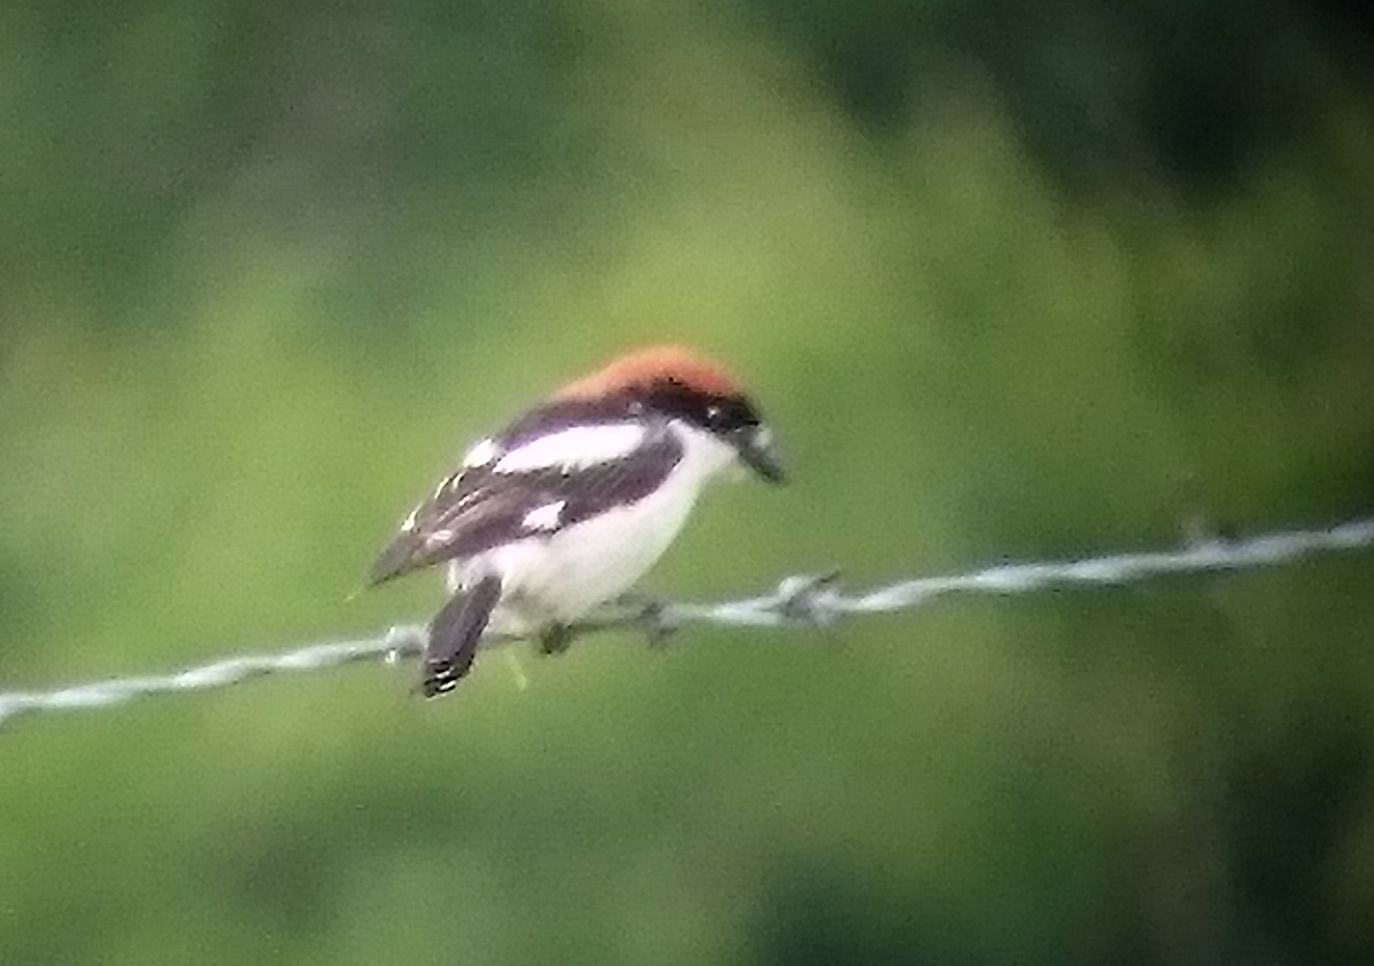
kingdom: Animalia
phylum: Chordata
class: Aves
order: Passeriformes
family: Laniidae
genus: Lanius
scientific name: Lanius senator
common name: Woodchat shrike
